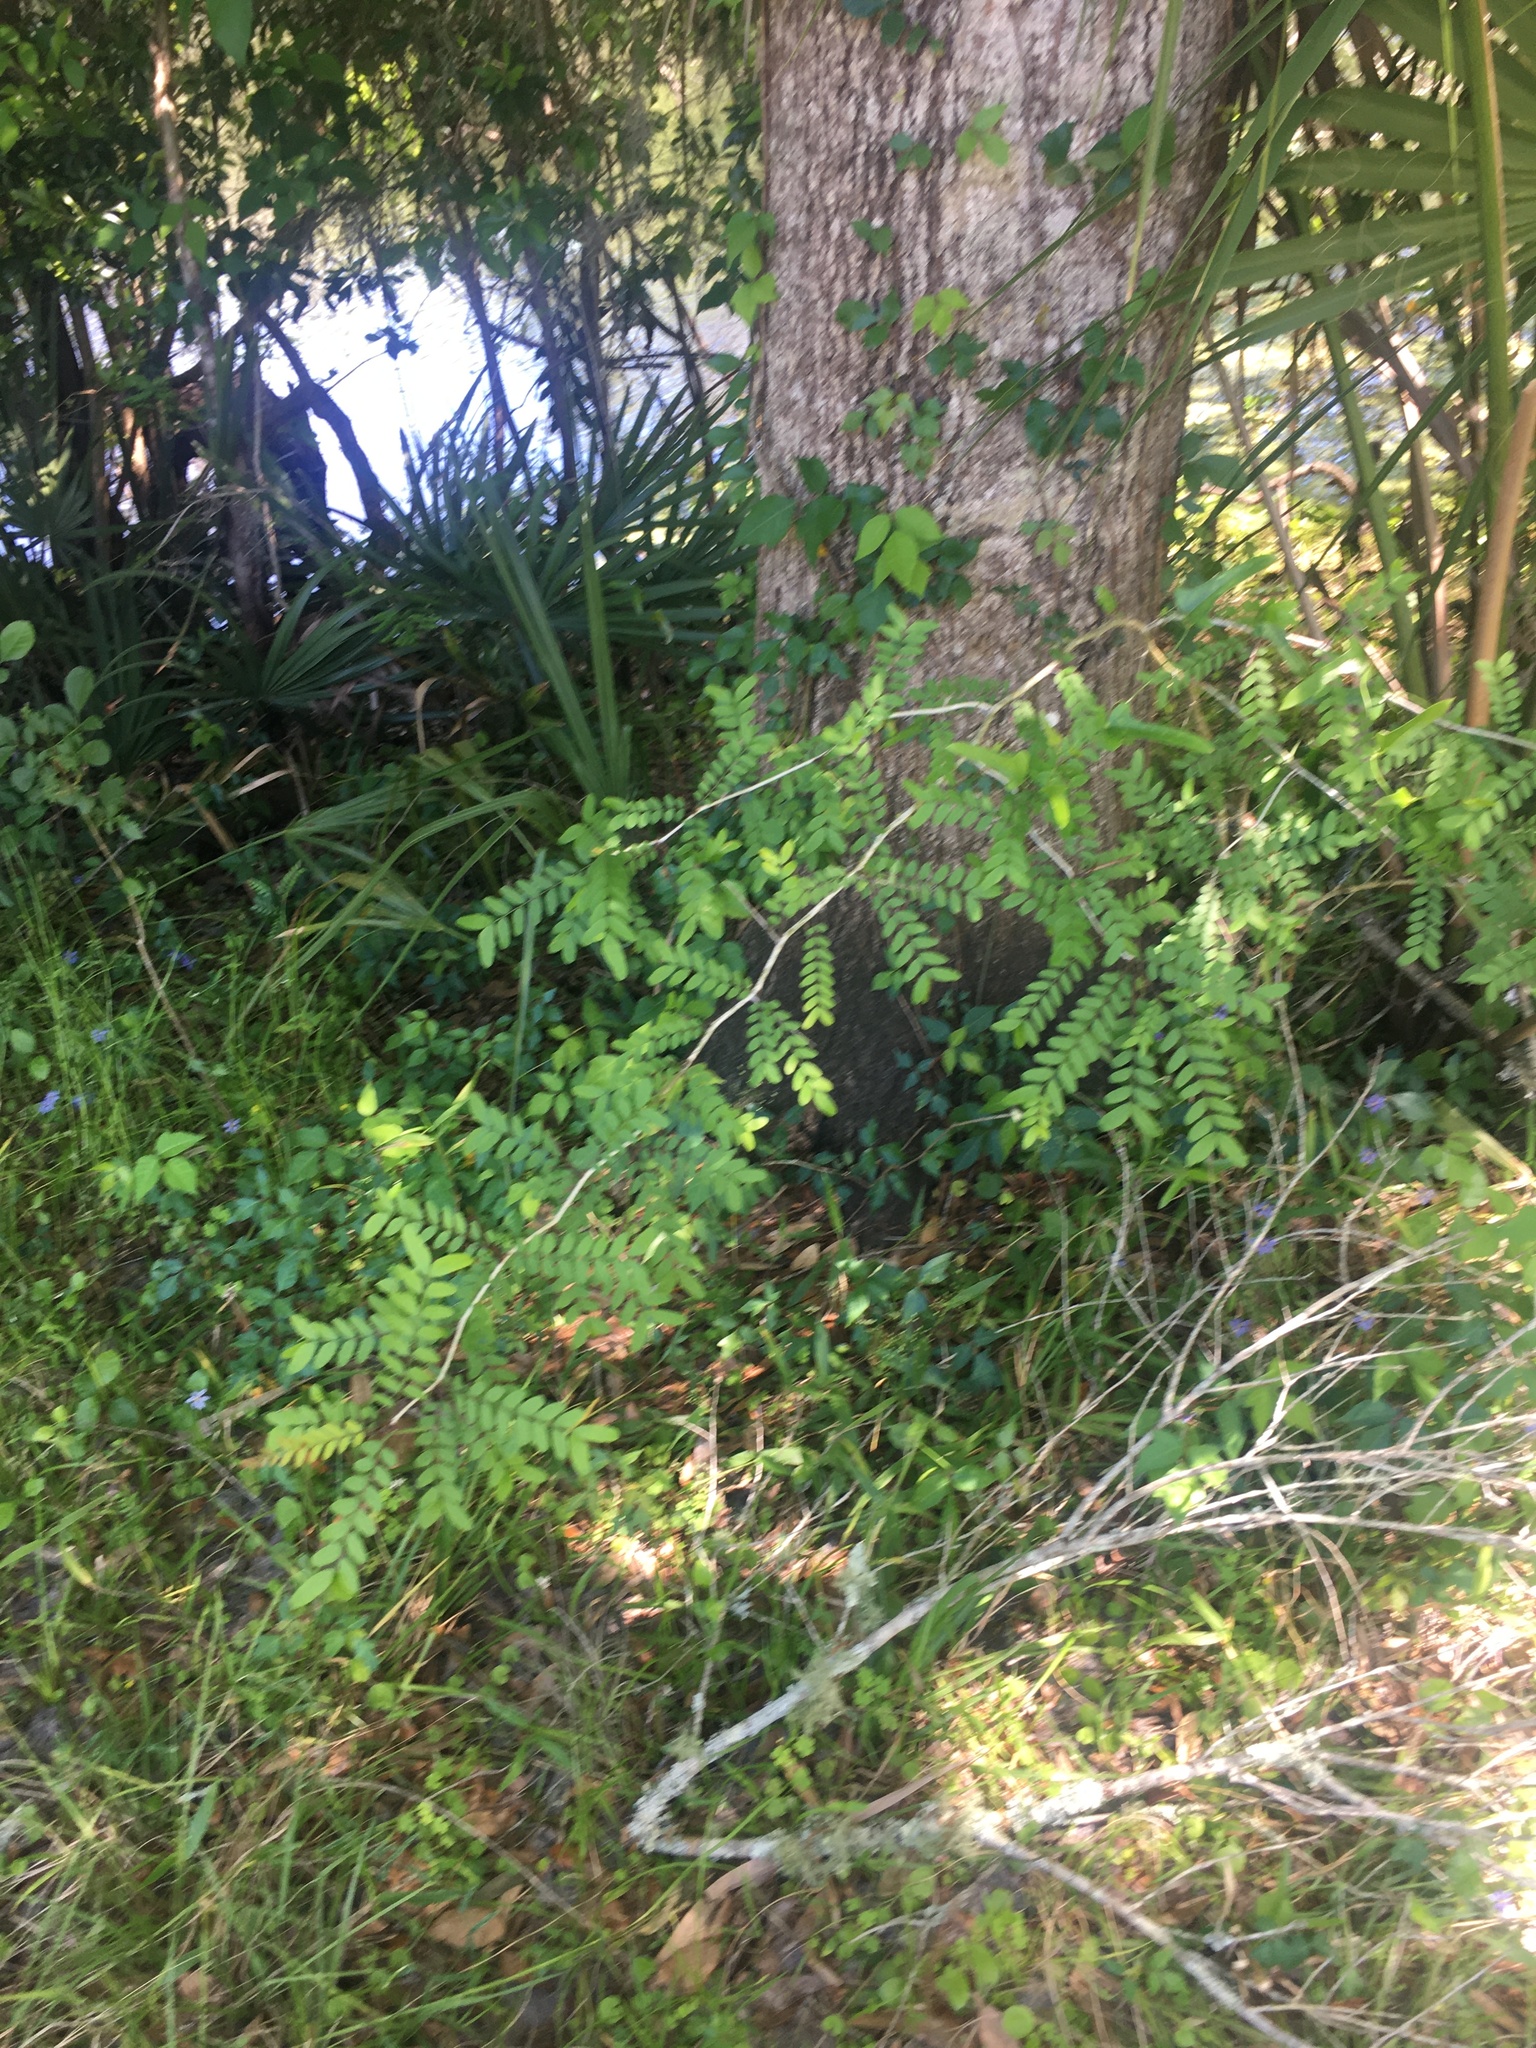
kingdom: Plantae
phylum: Tracheophyta
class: Magnoliopsida
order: Fabales
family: Fabaceae
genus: Abrus
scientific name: Abrus precatorius
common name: Rosarypea
